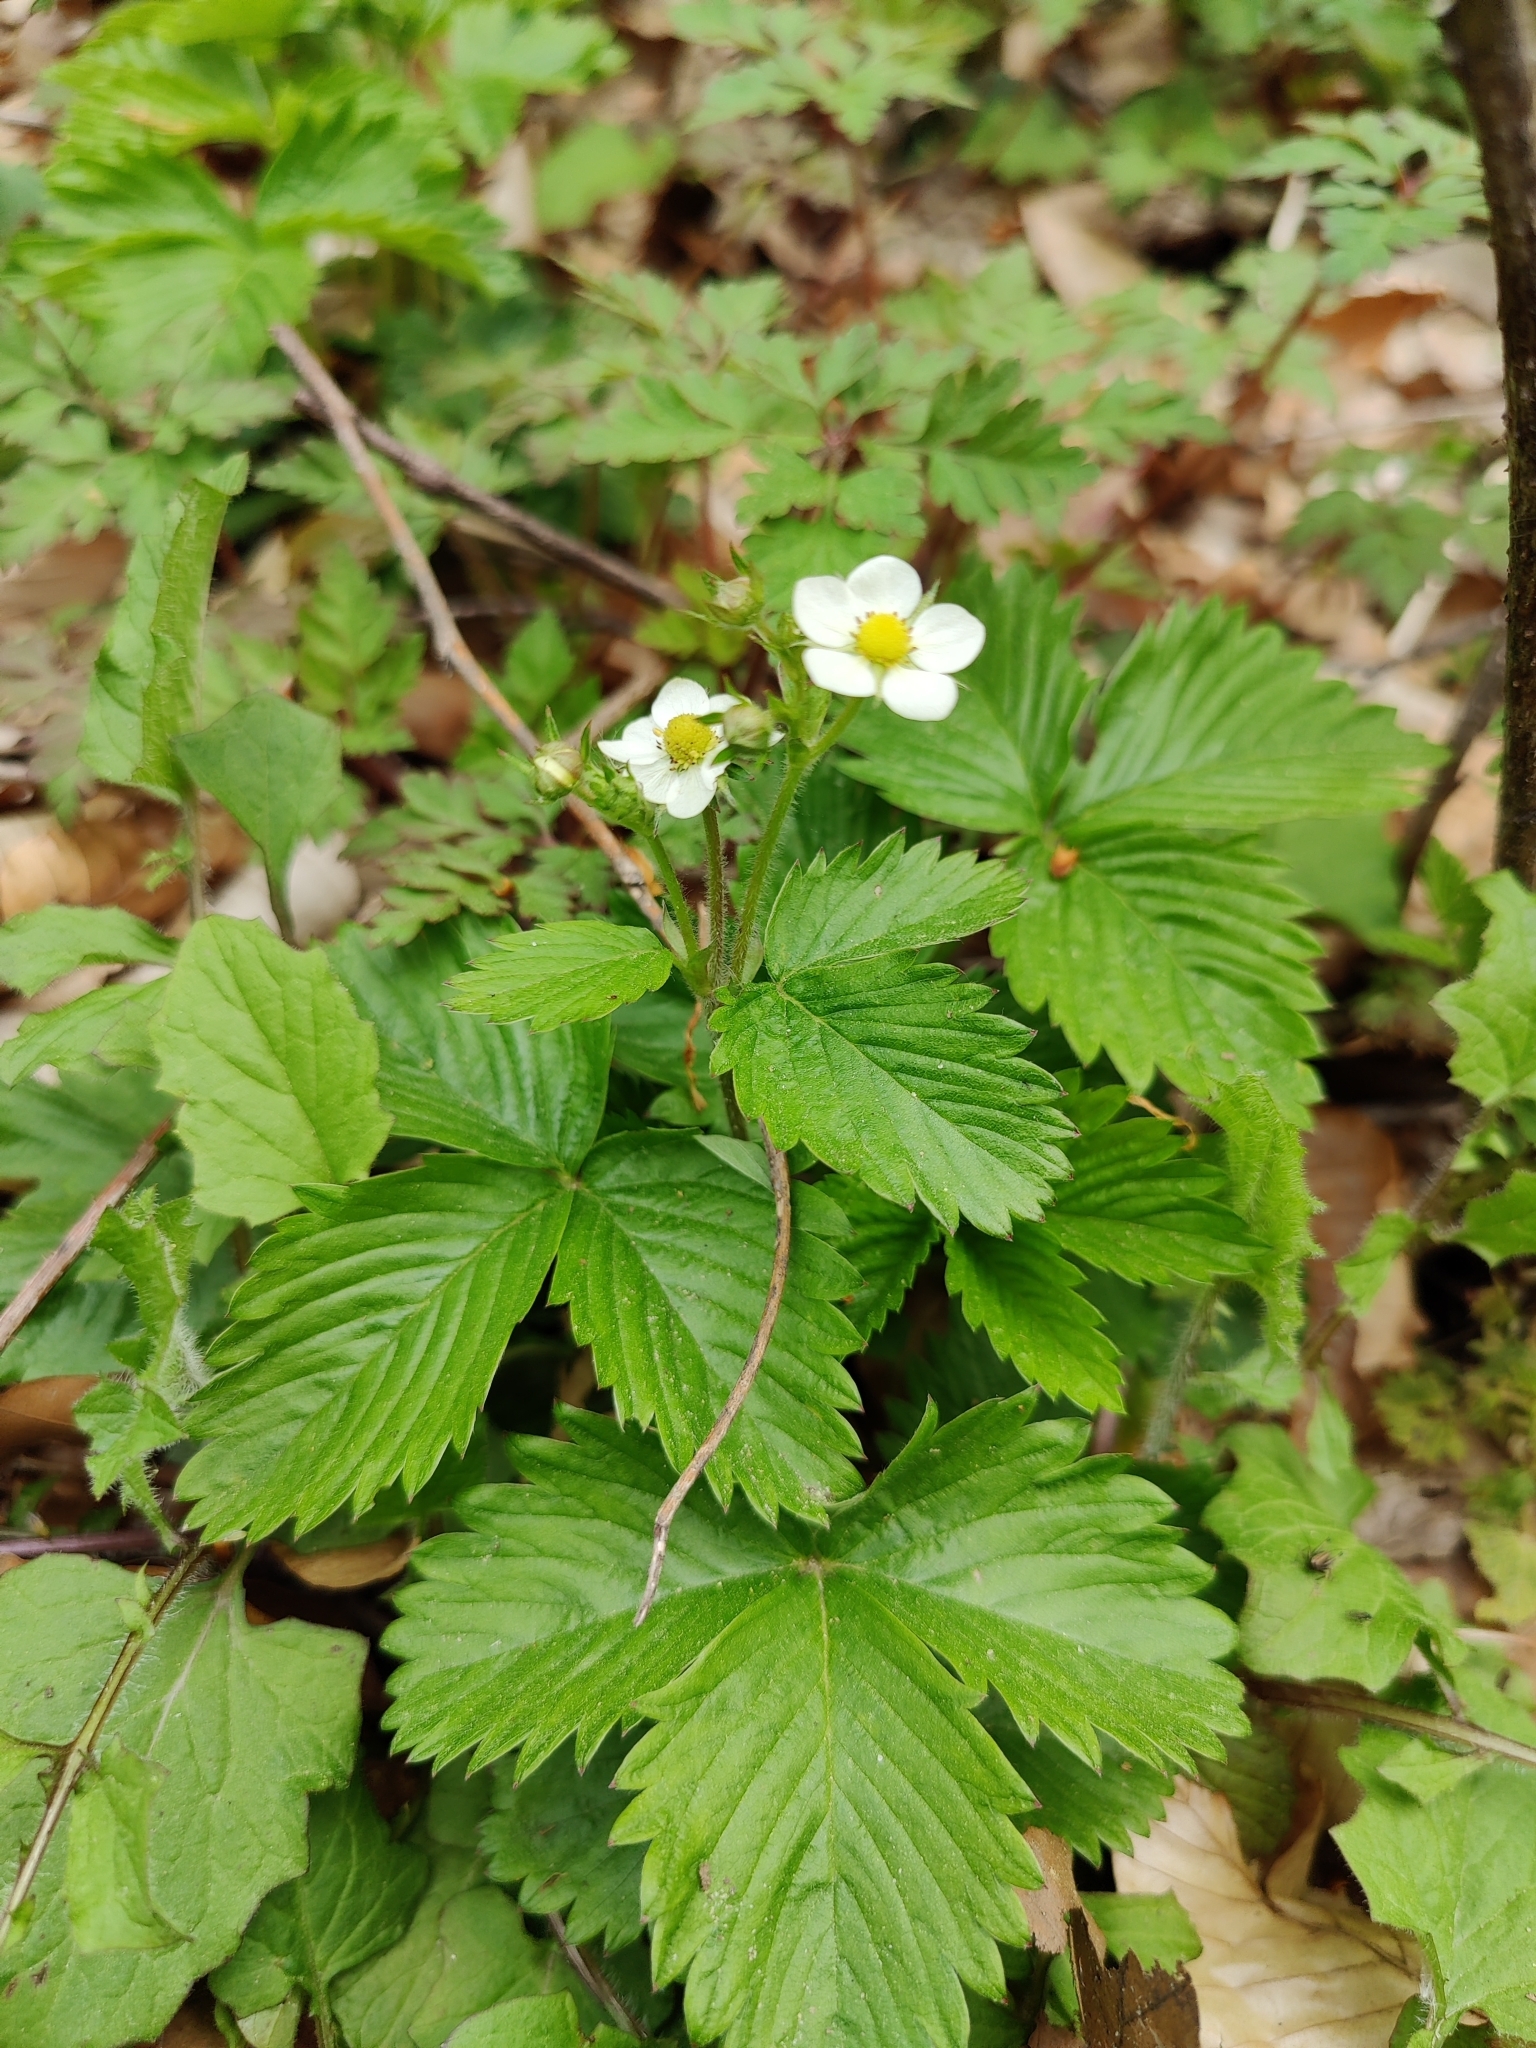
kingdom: Plantae
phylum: Tracheophyta
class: Magnoliopsida
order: Rosales
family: Rosaceae
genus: Fragaria
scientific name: Fragaria vesca
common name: Wild strawberry
